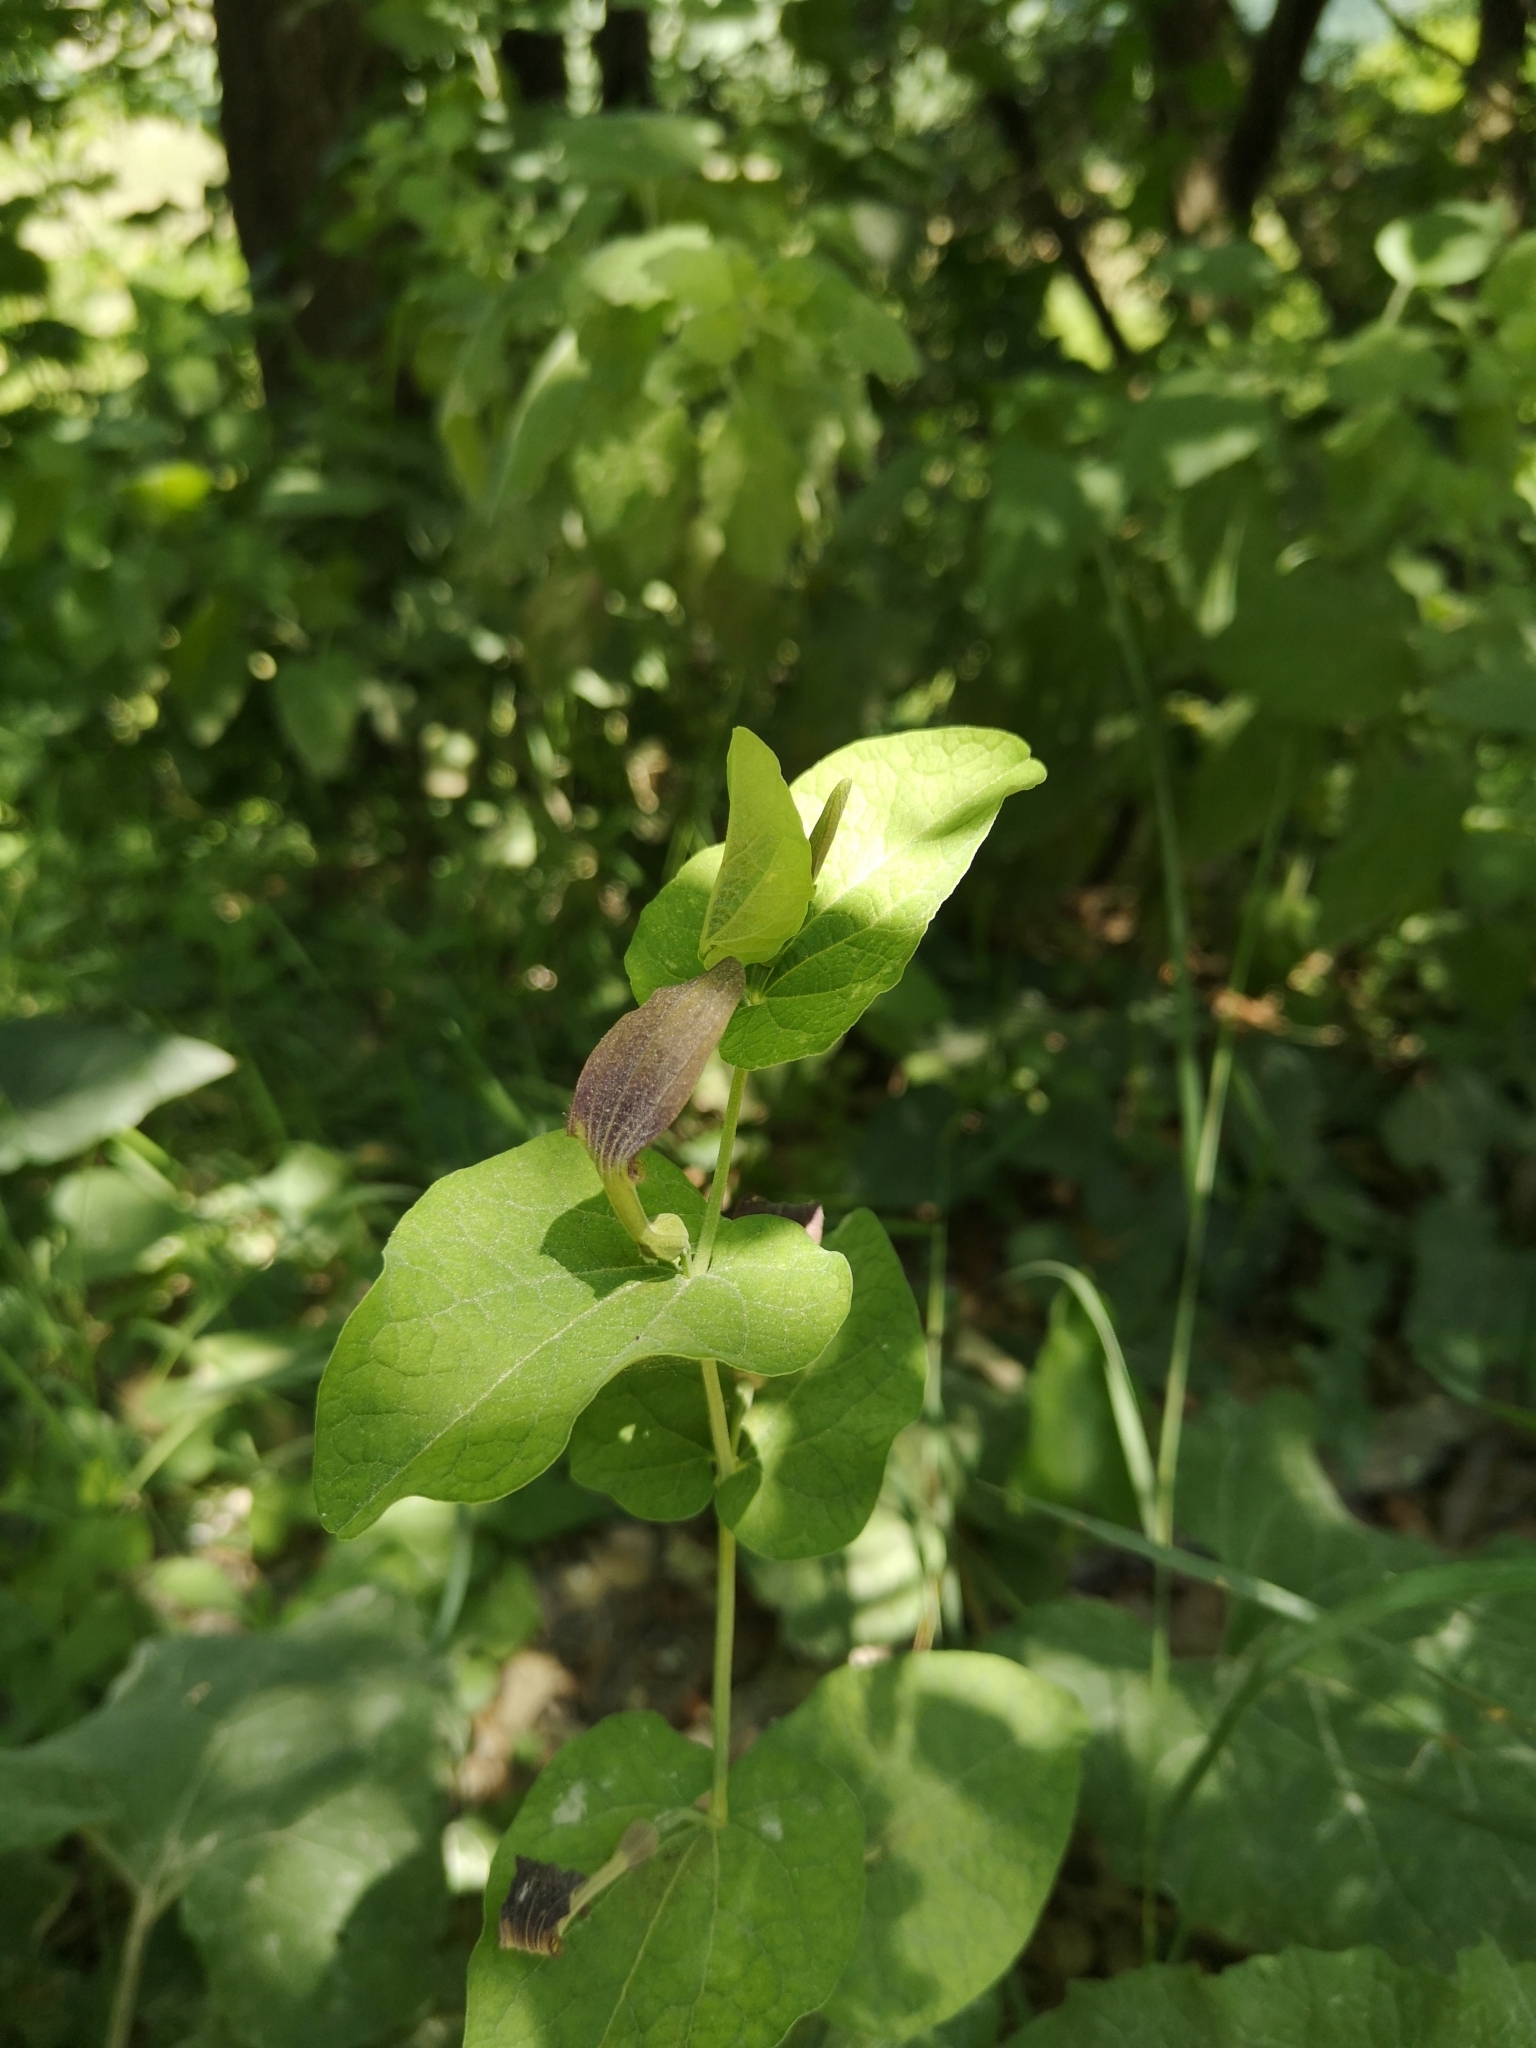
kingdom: Plantae
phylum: Tracheophyta
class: Magnoliopsida
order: Piperales
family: Aristolochiaceae
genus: Aristolochia
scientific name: Aristolochia rotunda
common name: Smearwort
